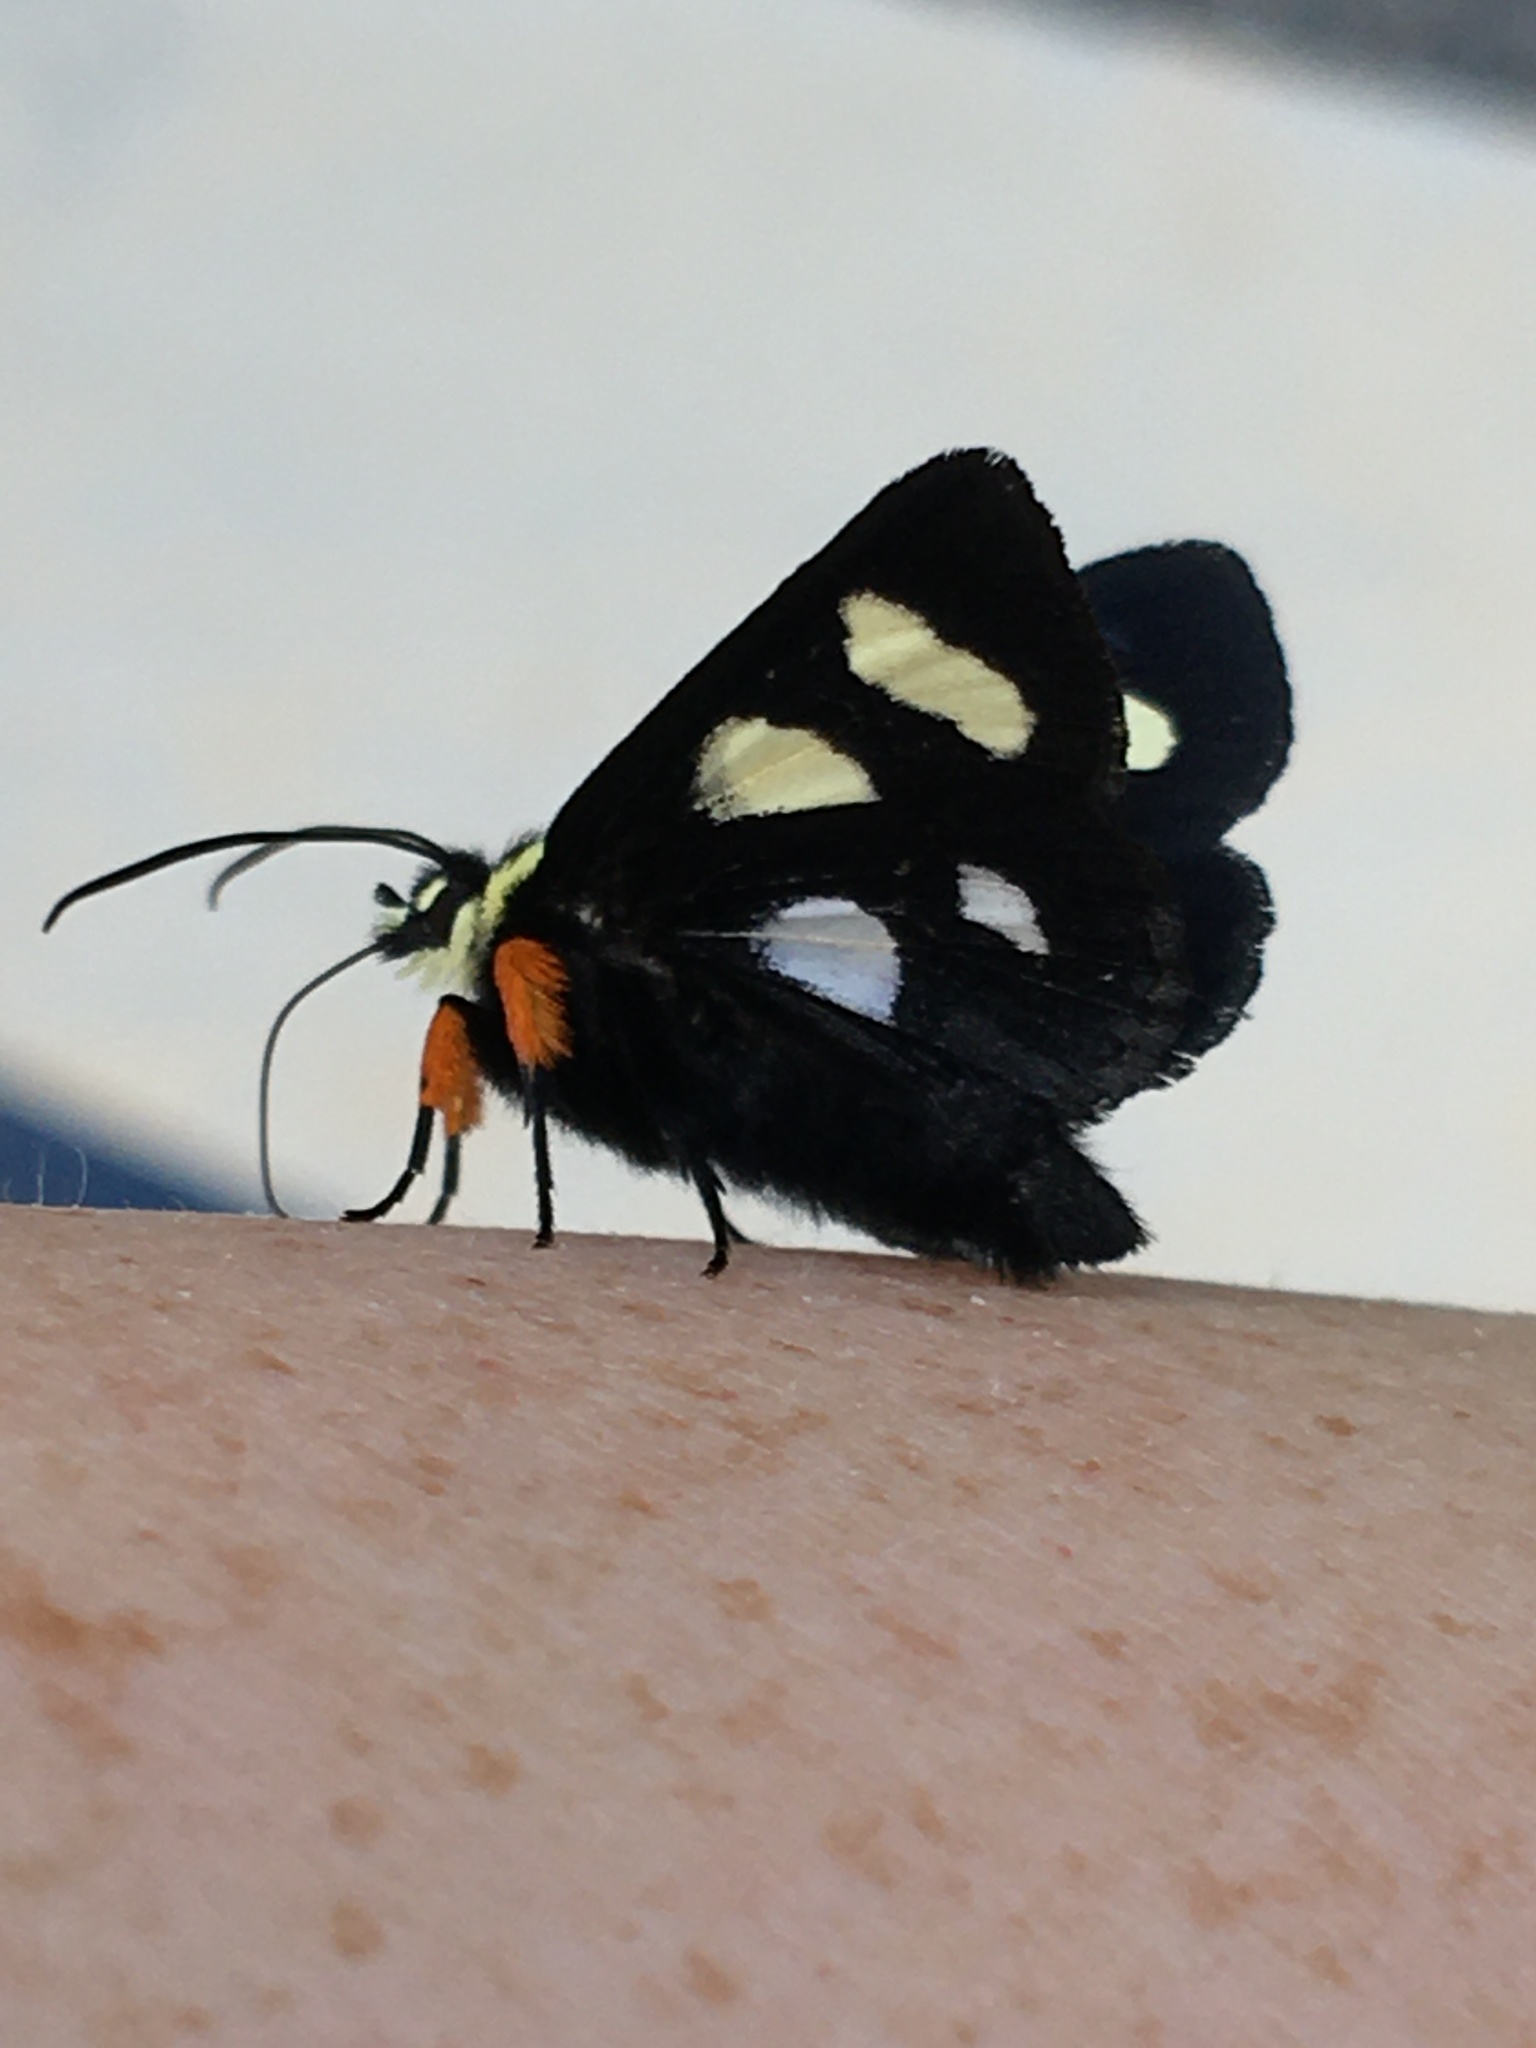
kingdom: Animalia
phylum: Arthropoda
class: Insecta
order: Lepidoptera
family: Noctuidae
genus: Alypia
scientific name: Alypia octomaculata
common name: Eight-spotted forester
